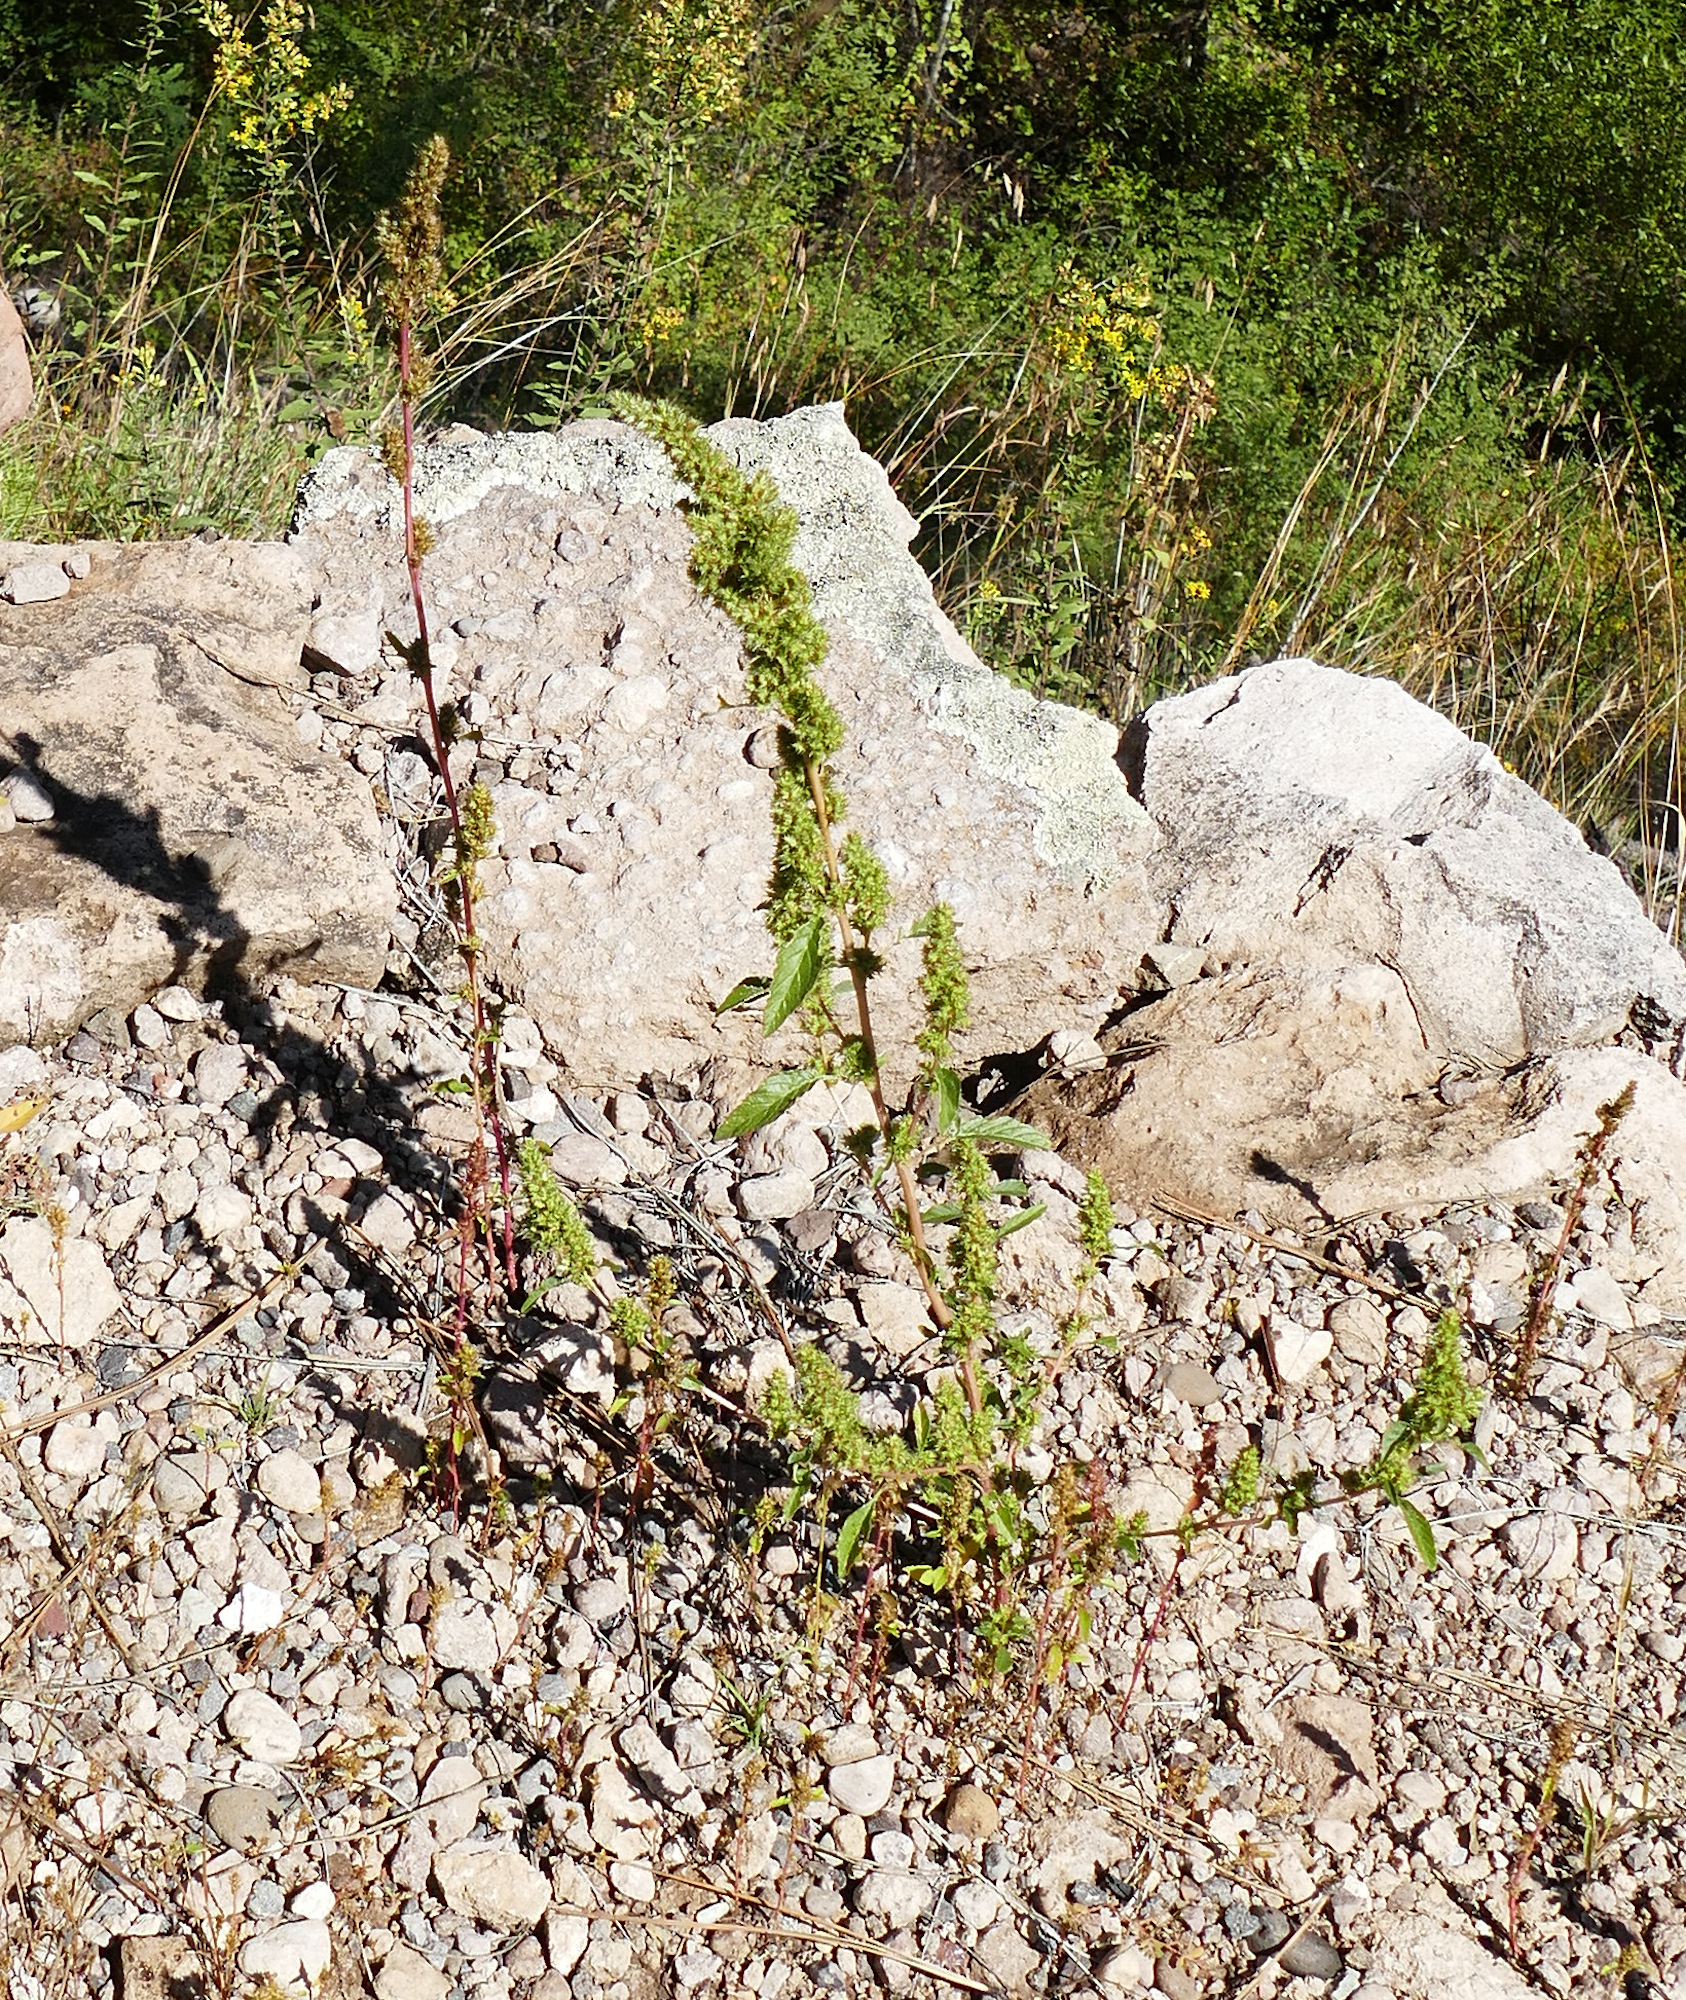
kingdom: Plantae
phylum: Tracheophyta
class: Magnoliopsida
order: Caryophyllales
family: Amaranthaceae
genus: Amaranthus
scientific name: Amaranthus powellii
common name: Powell's amaranth
